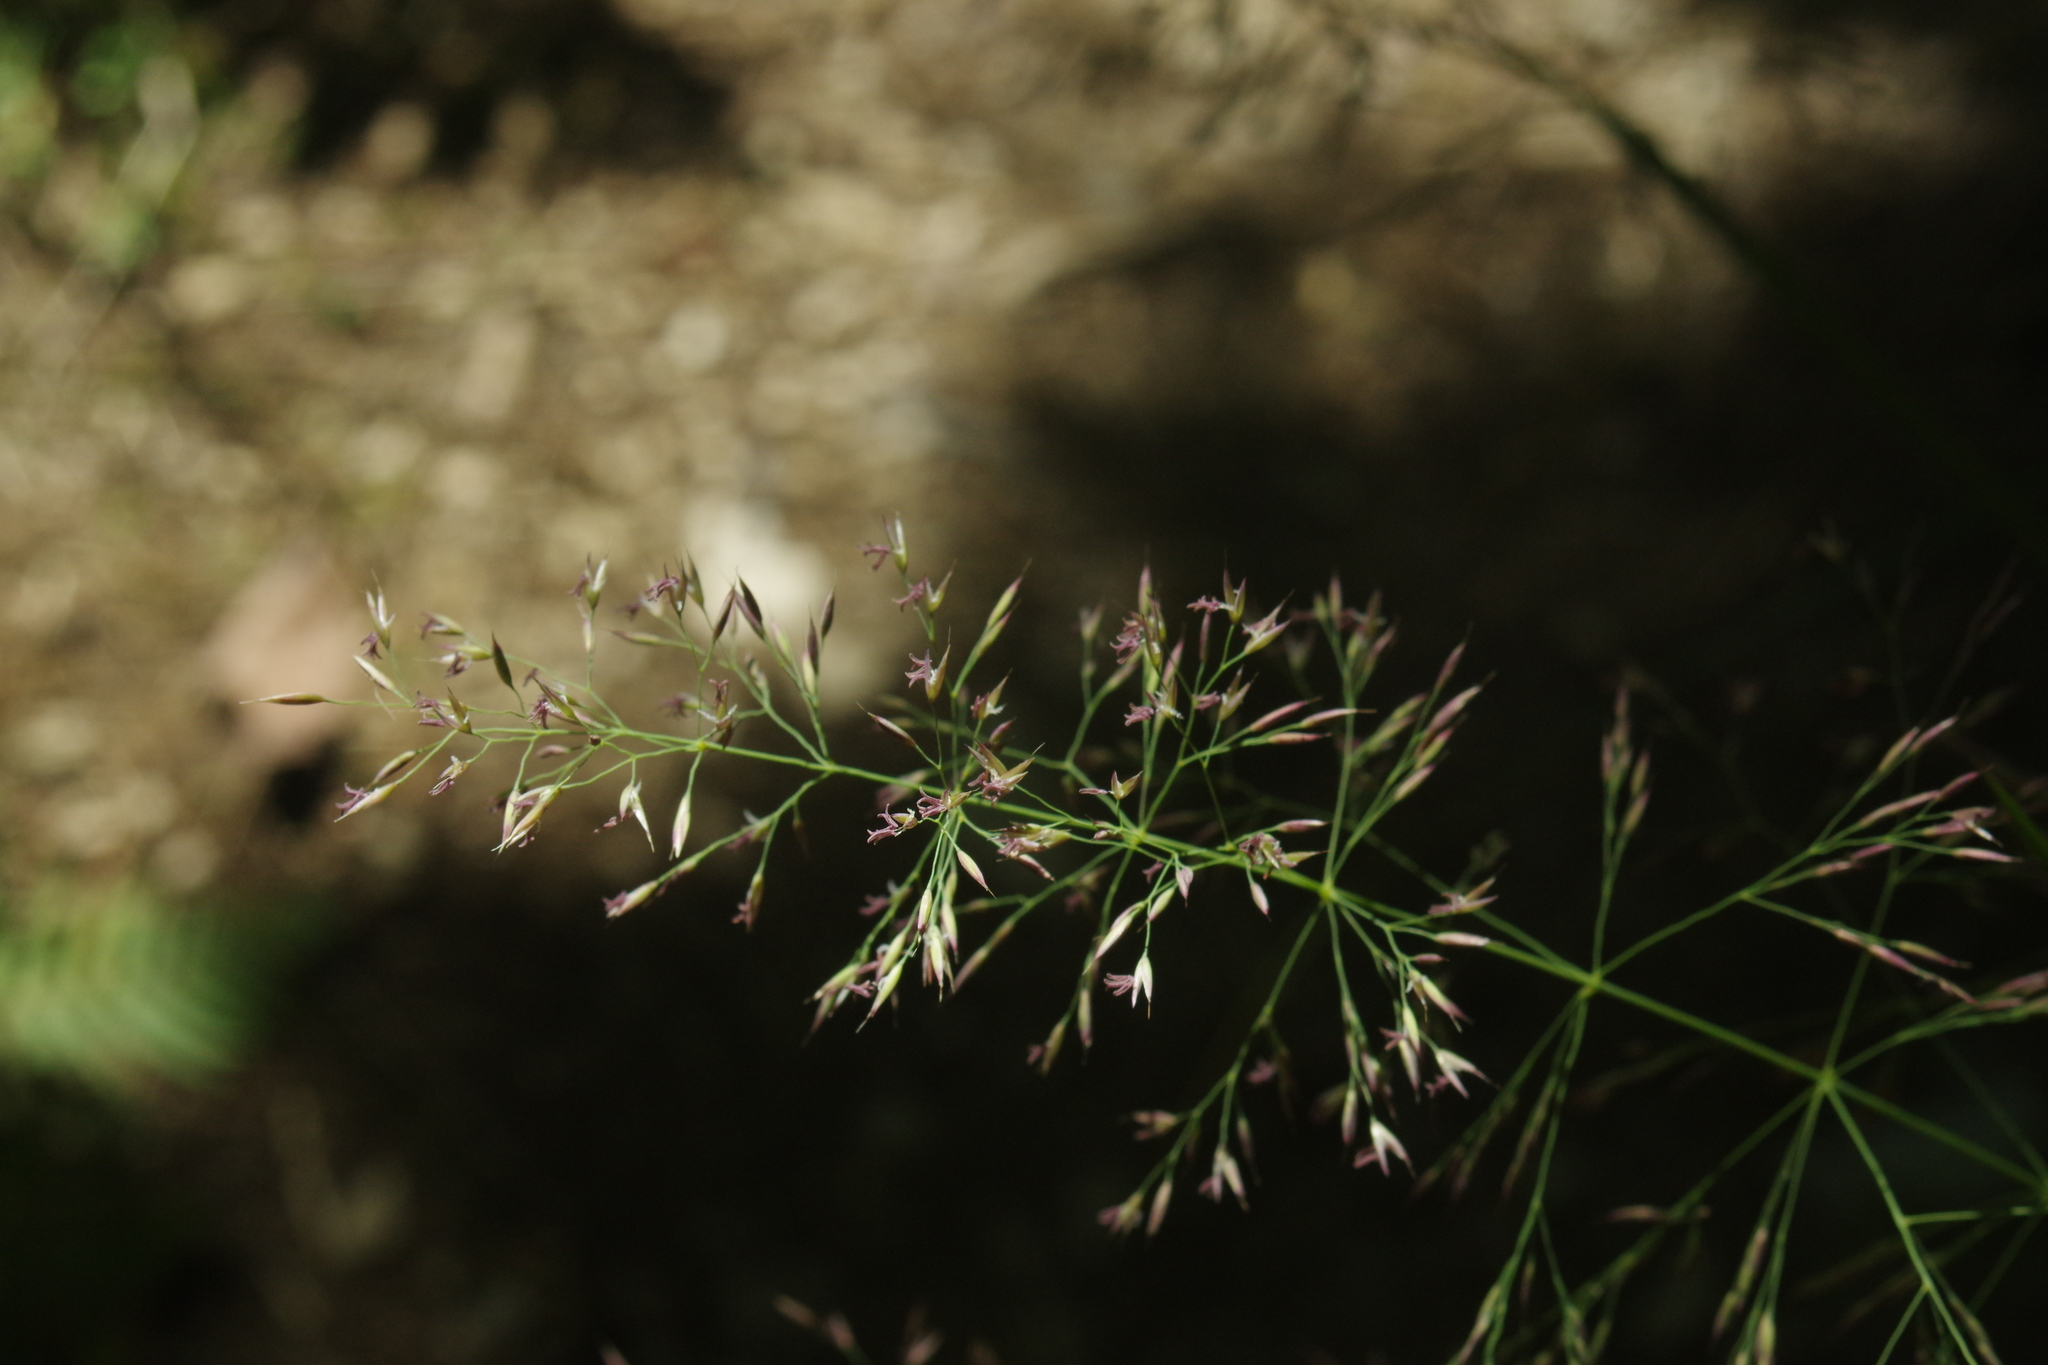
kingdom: Plantae
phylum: Tracheophyta
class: Liliopsida
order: Poales
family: Poaceae
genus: Calamagrostis
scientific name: Calamagrostis arundinacea
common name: Metskastik
